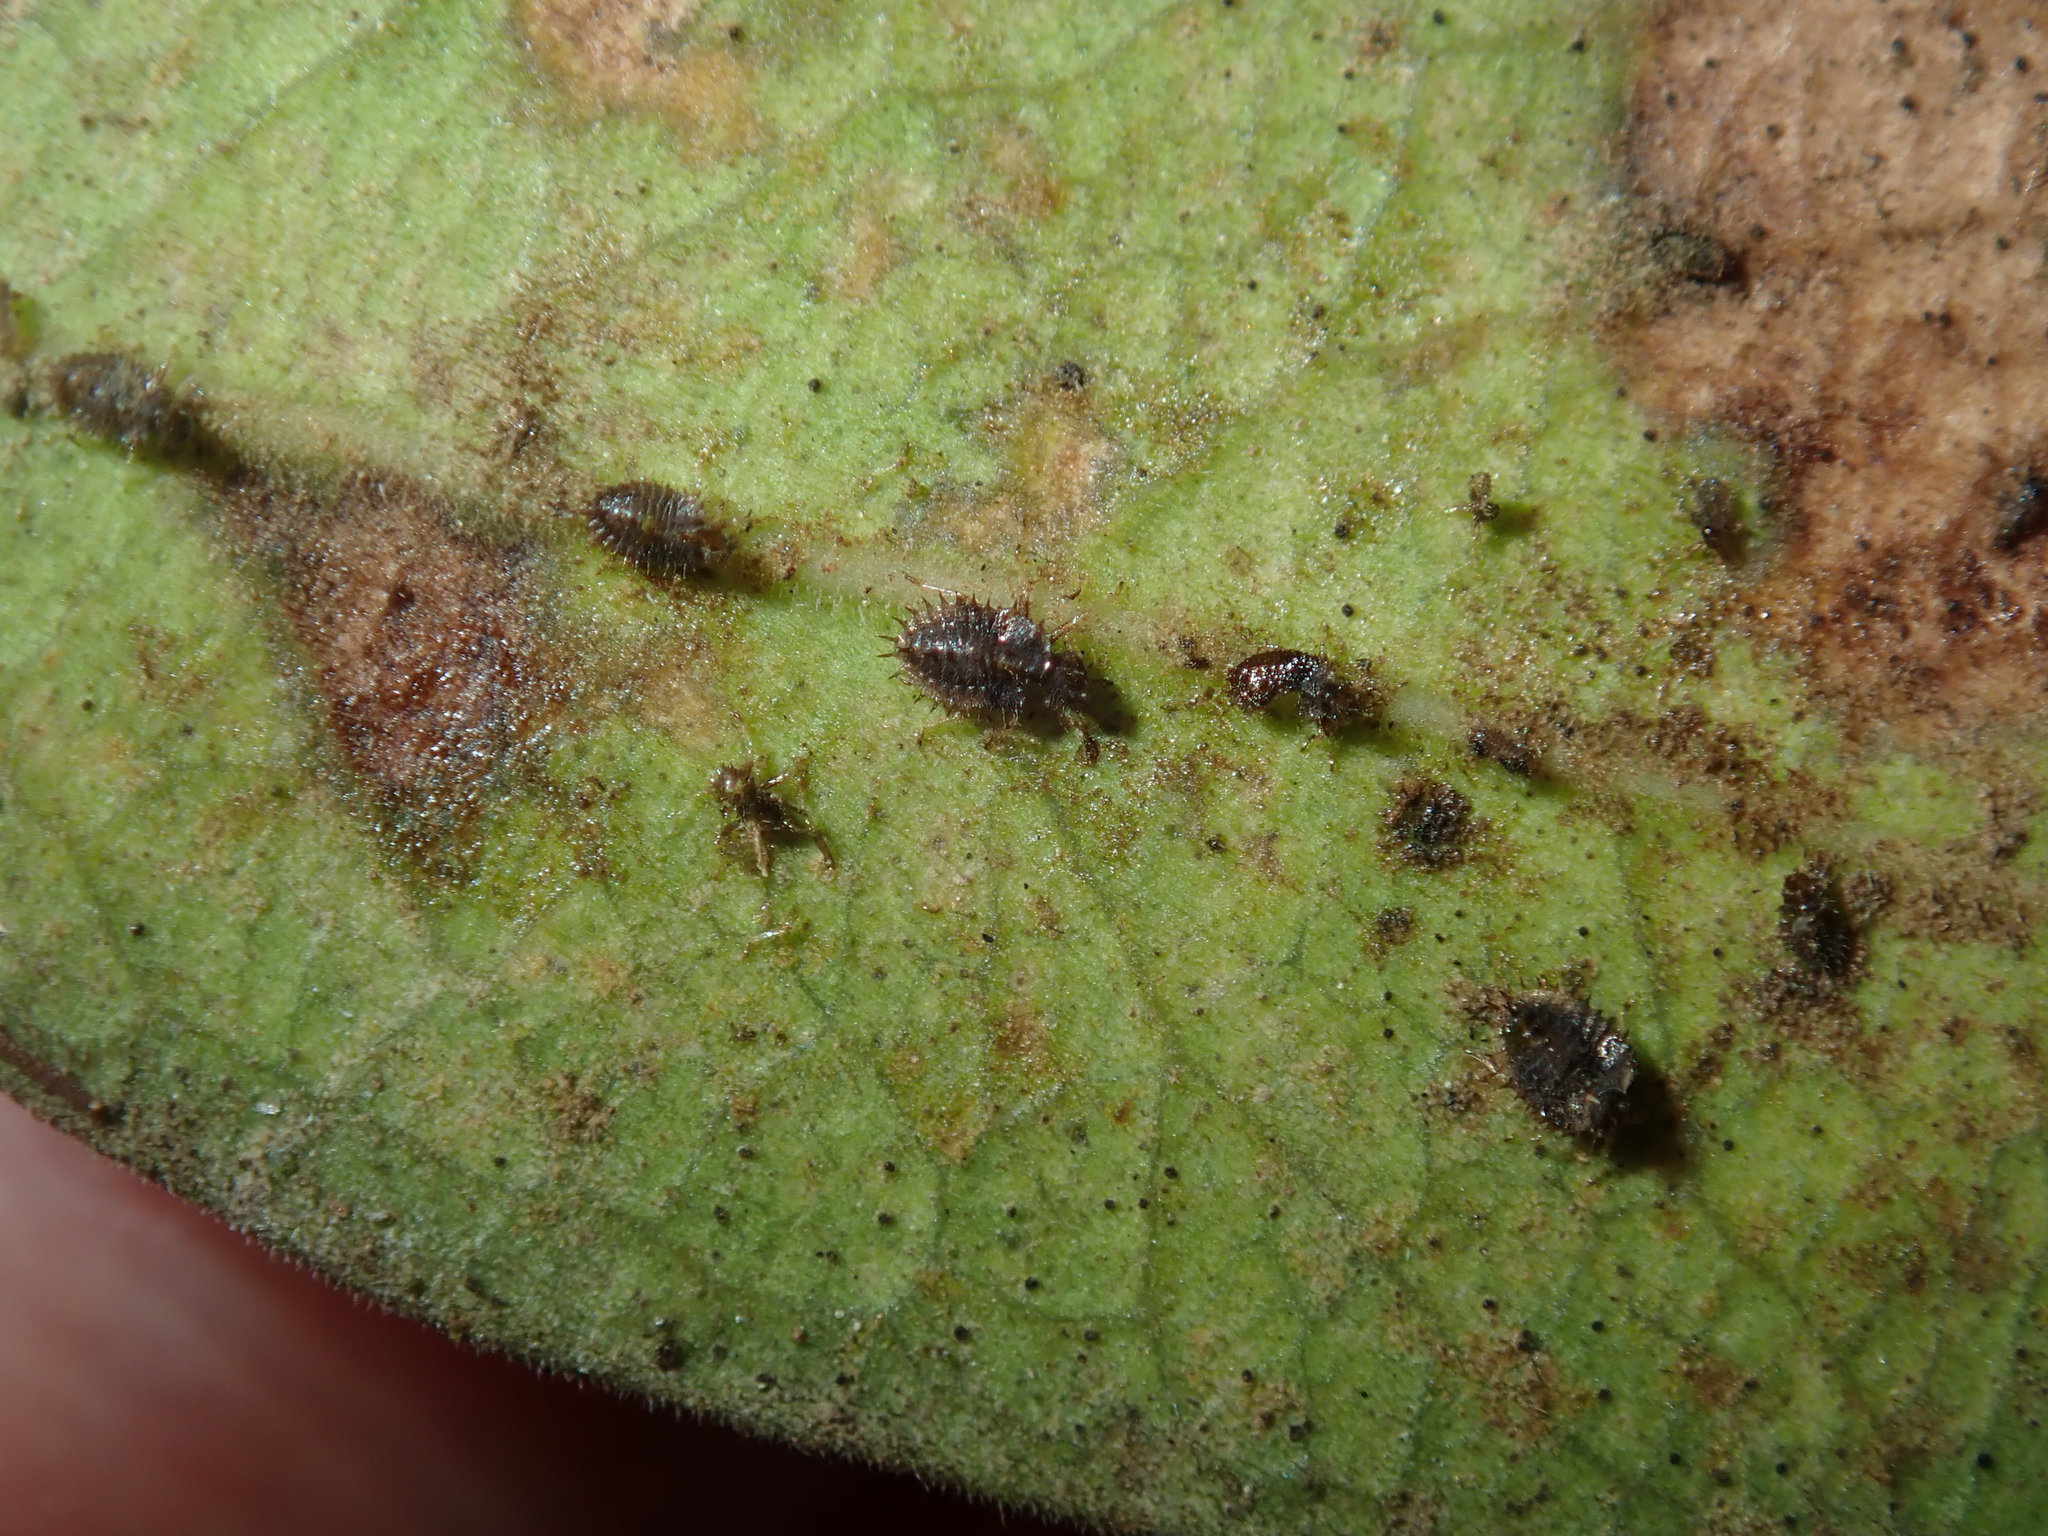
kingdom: Animalia
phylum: Arthropoda
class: Insecta
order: Hemiptera
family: Tingidae
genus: Froggattia
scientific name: Froggattia olivinia
